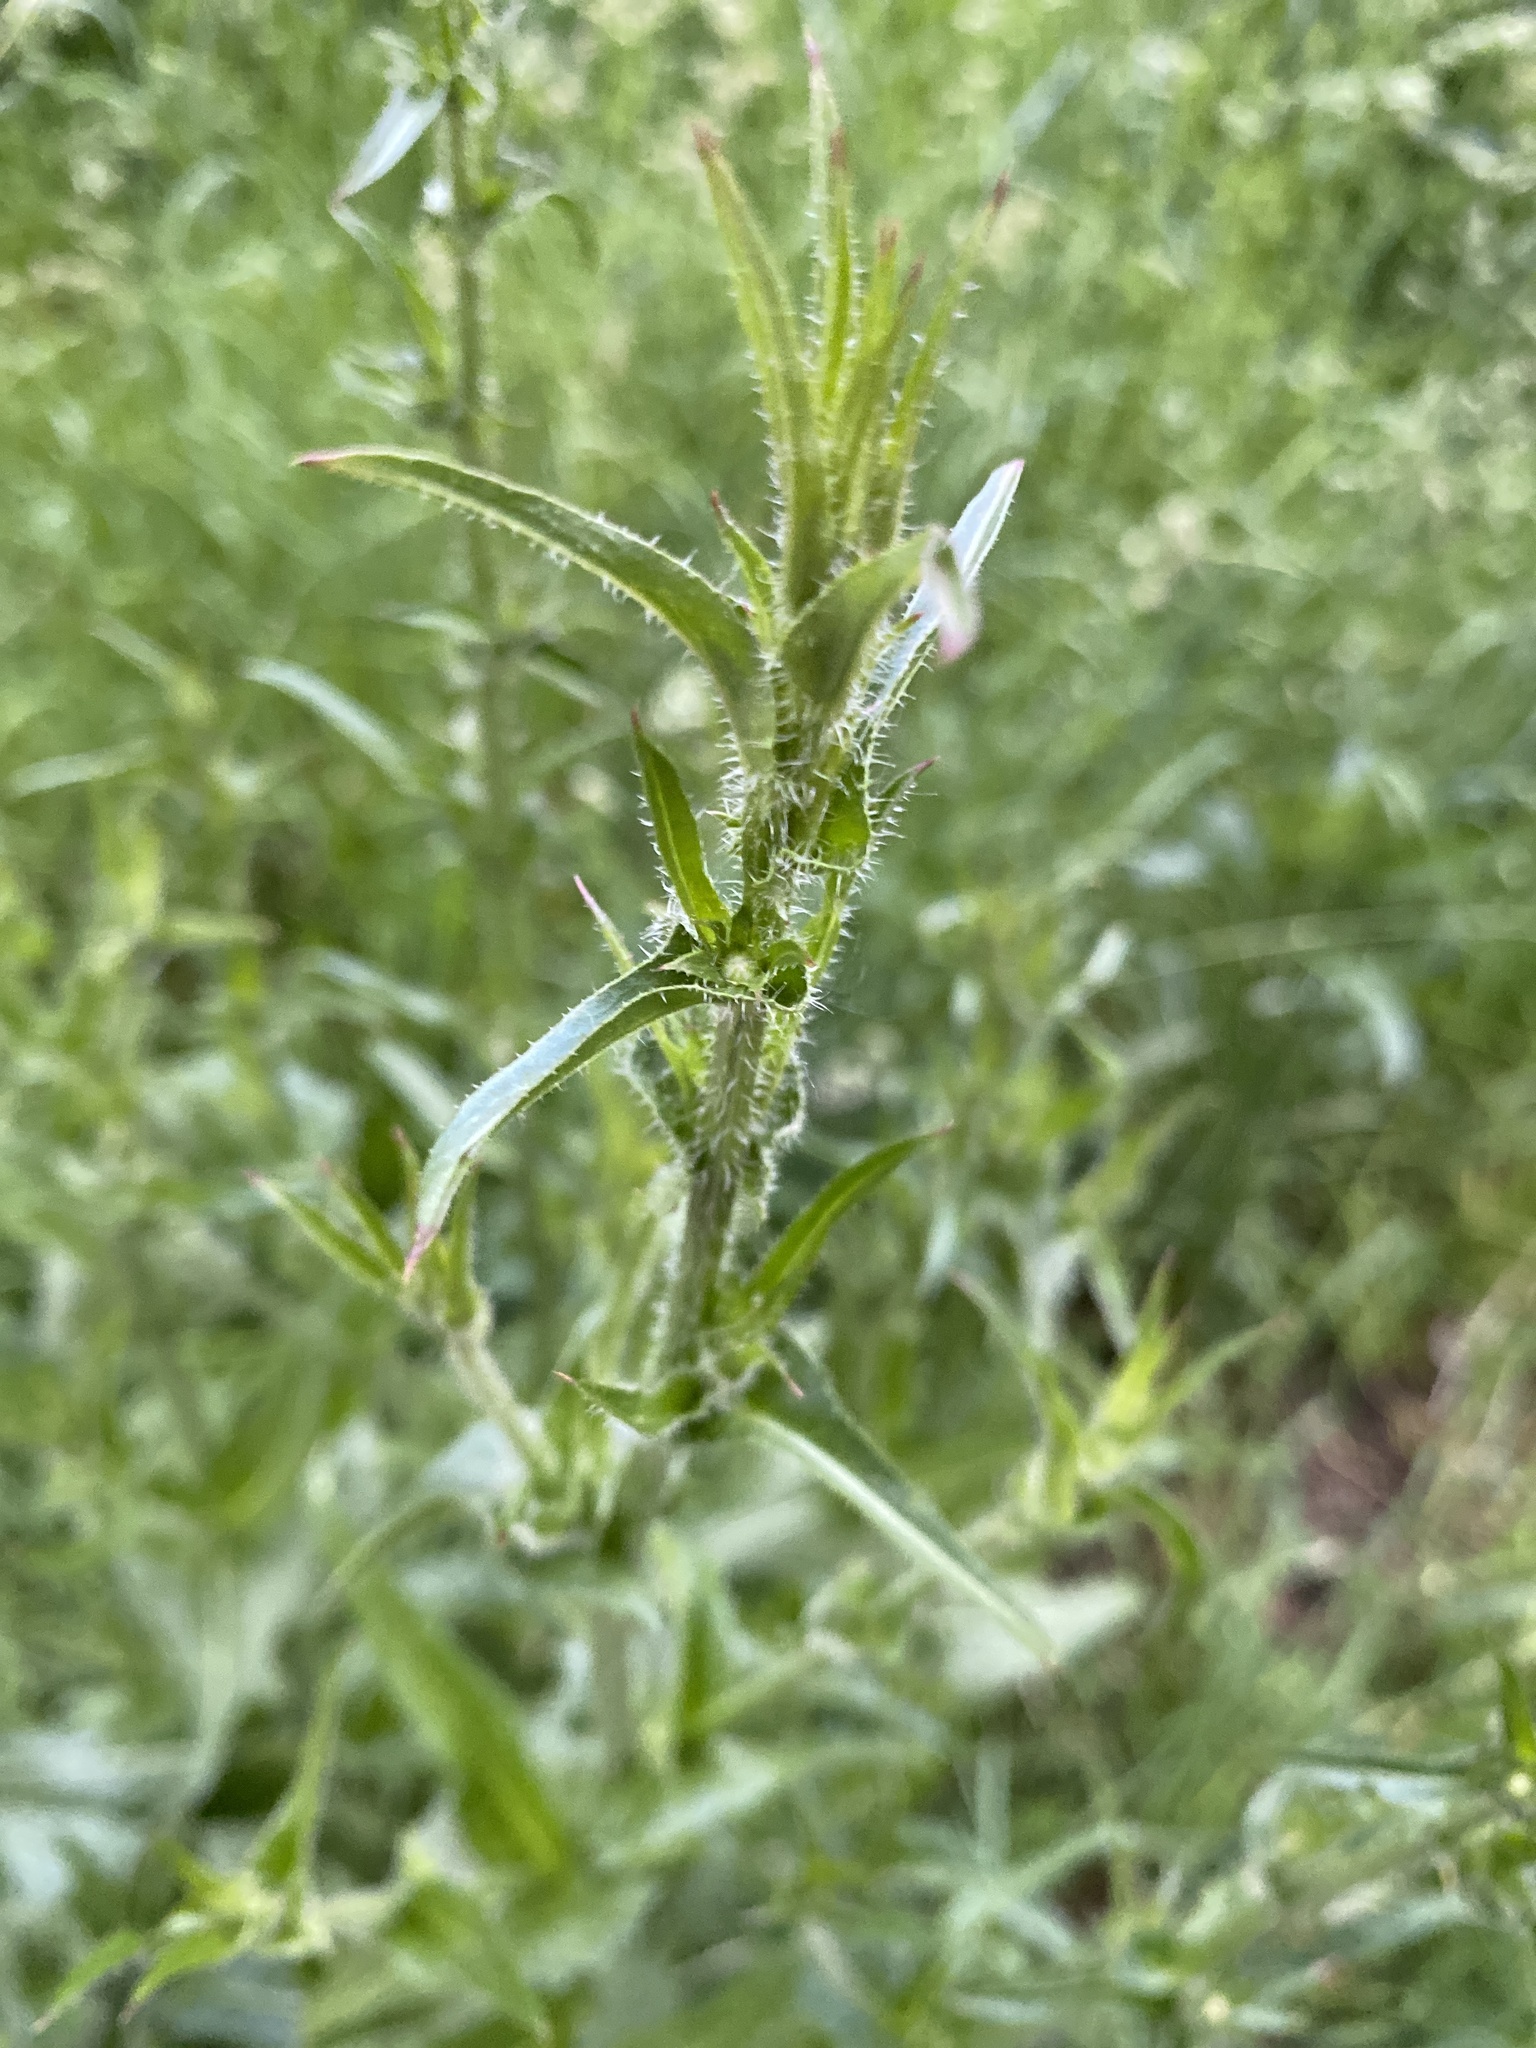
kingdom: Plantae
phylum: Tracheophyta
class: Magnoliopsida
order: Asterales
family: Asteraceae
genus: Cichorium
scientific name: Cichorium intybus
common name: Chicory
